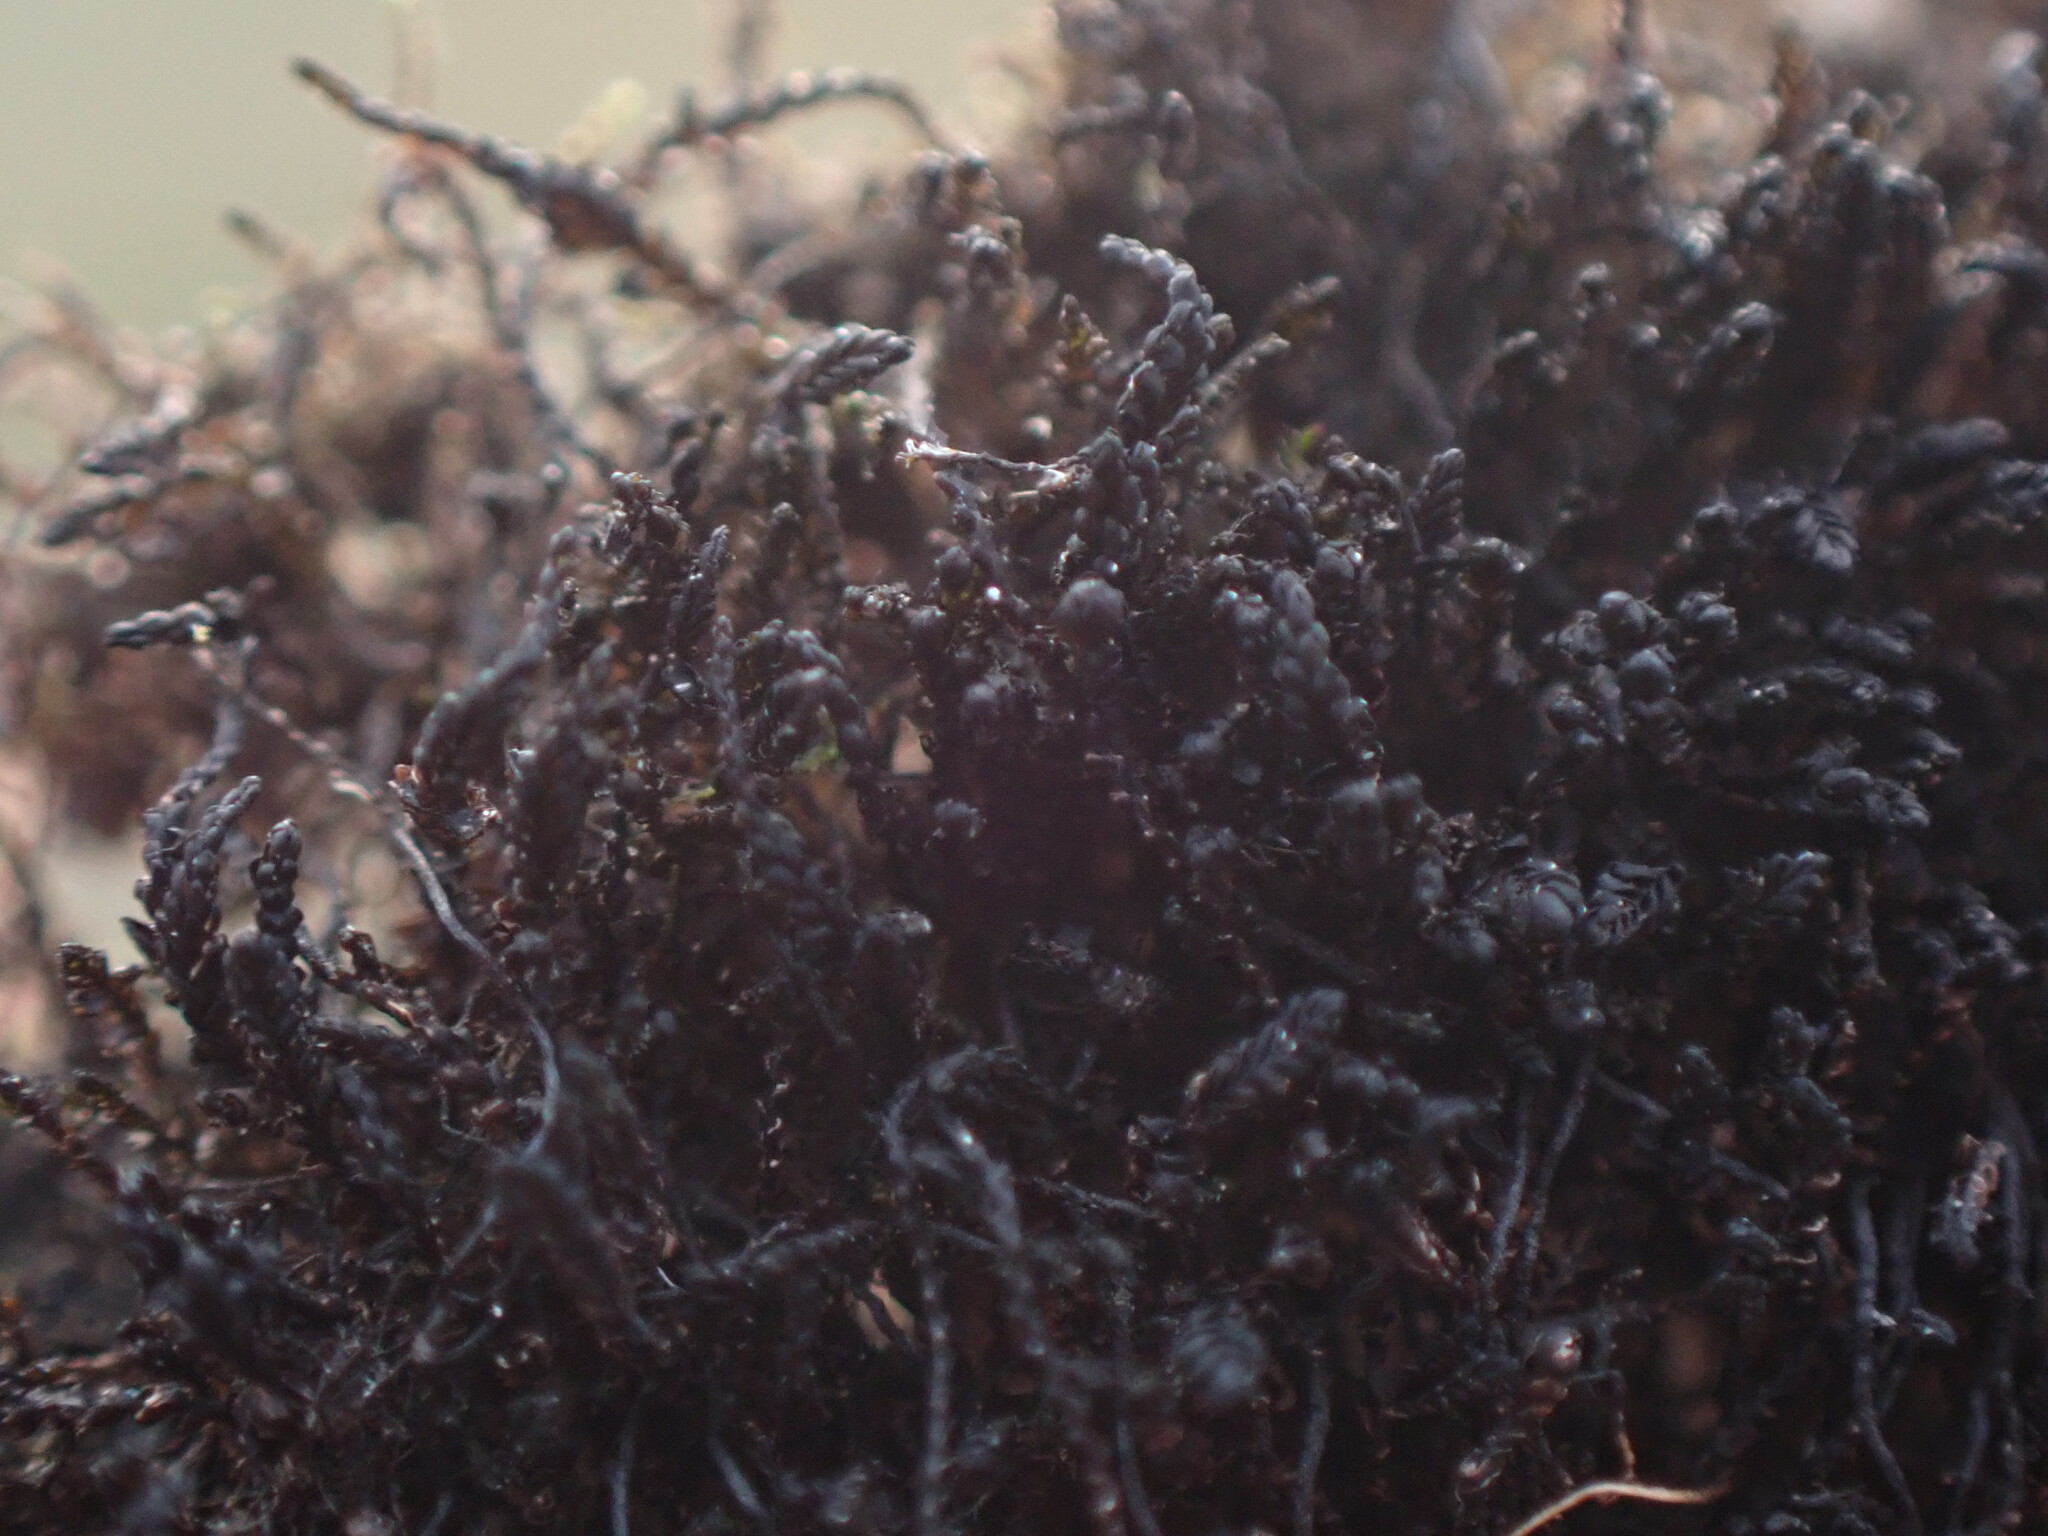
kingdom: Plantae
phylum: Marchantiophyta
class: Jungermanniopsida
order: Jungermanniales
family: Gymnomitriaceae
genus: Marsupella
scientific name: Marsupella stableri
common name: Stabler's rustwort
